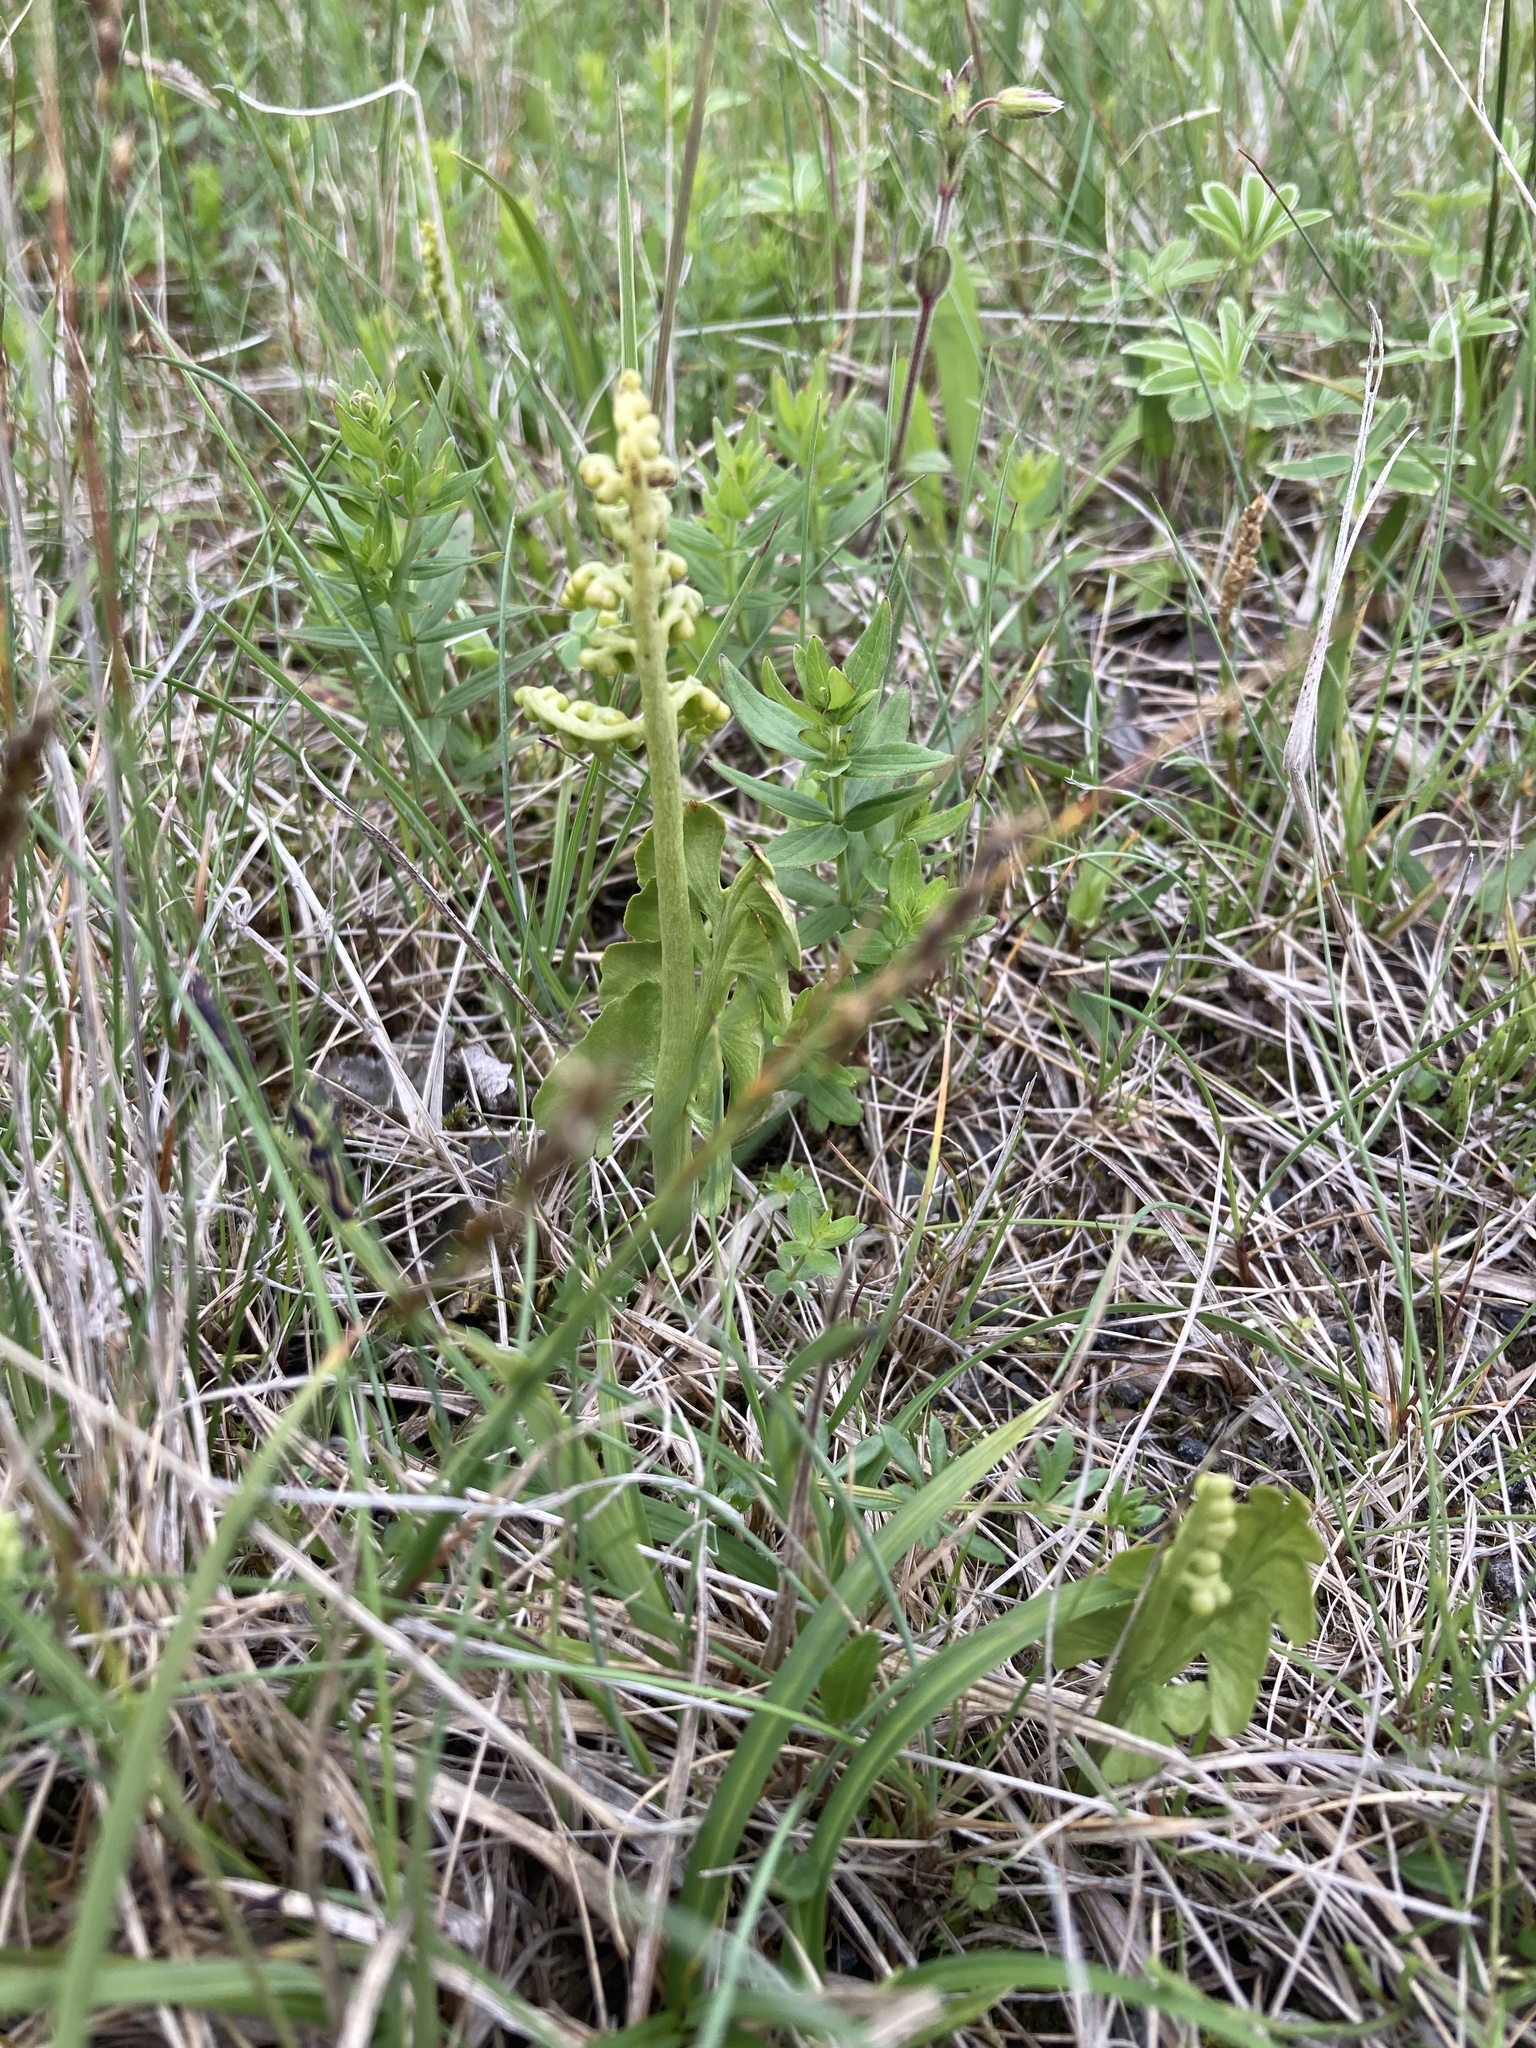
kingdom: Plantae
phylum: Tracheophyta
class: Polypodiopsida
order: Ophioglossales
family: Ophioglossaceae
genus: Botrychium
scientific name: Botrychium lunaria
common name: Moonwort
